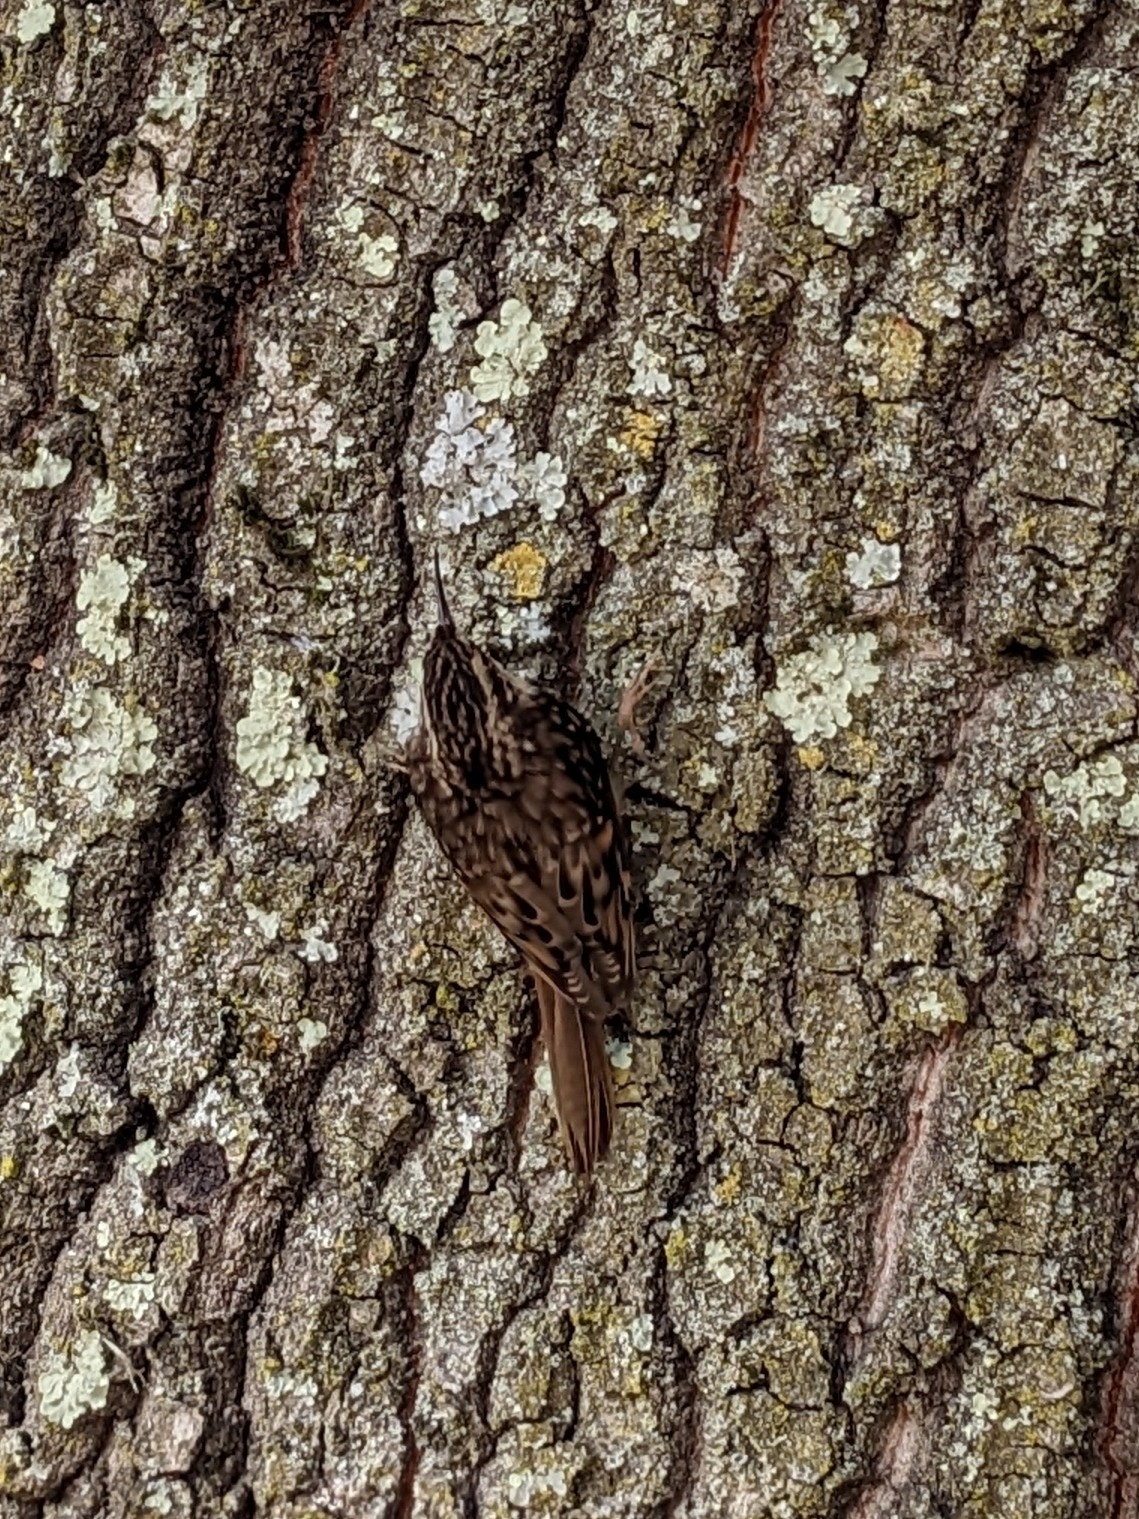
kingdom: Animalia
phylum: Chordata
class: Aves
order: Passeriformes
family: Certhiidae
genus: Certhia
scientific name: Certhia americana
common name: Brown creeper
